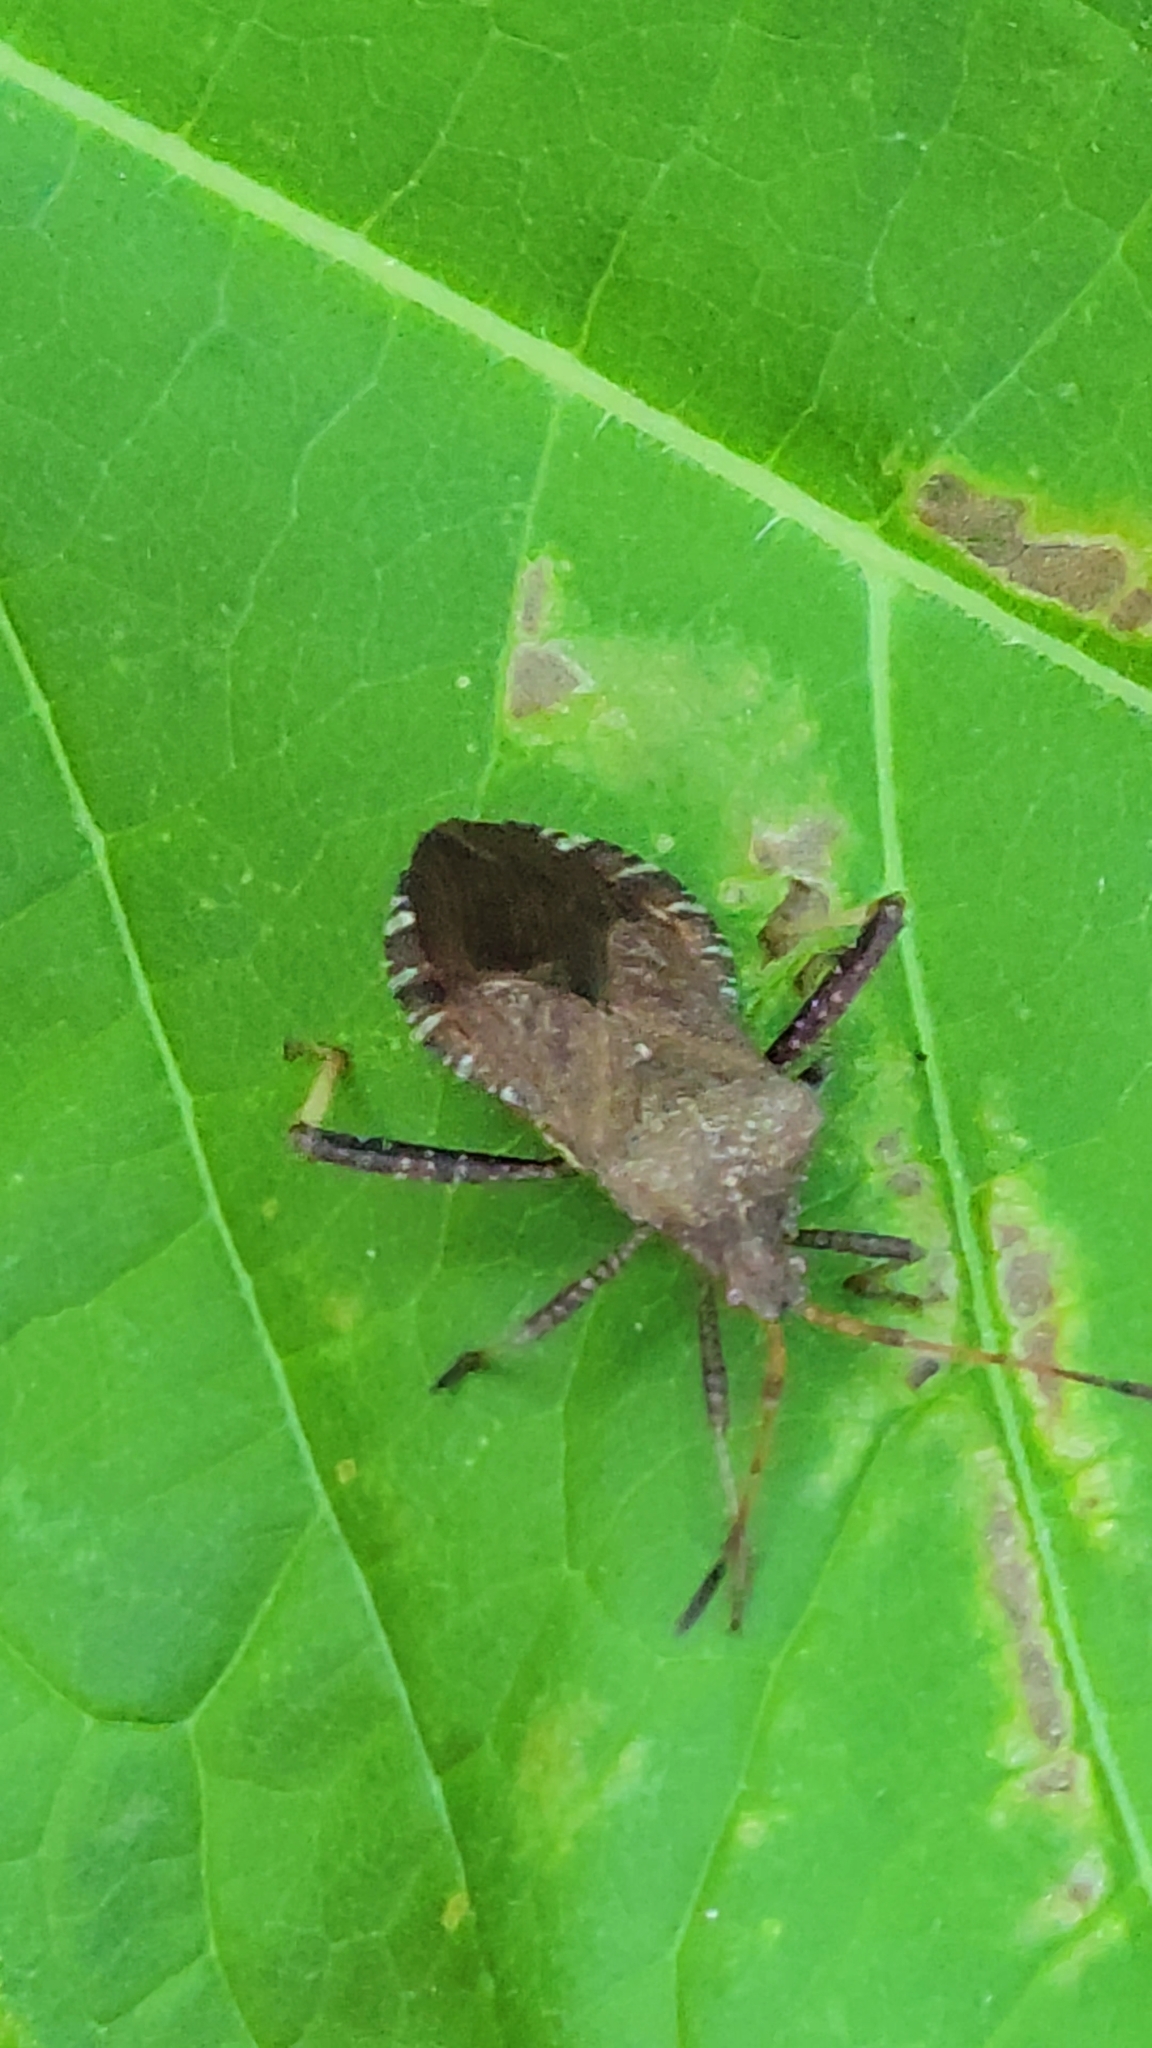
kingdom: Animalia
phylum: Arthropoda
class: Insecta
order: Hemiptera
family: Coreidae
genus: Euthochtha
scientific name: Euthochtha galeator
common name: Helmeted squash bug
